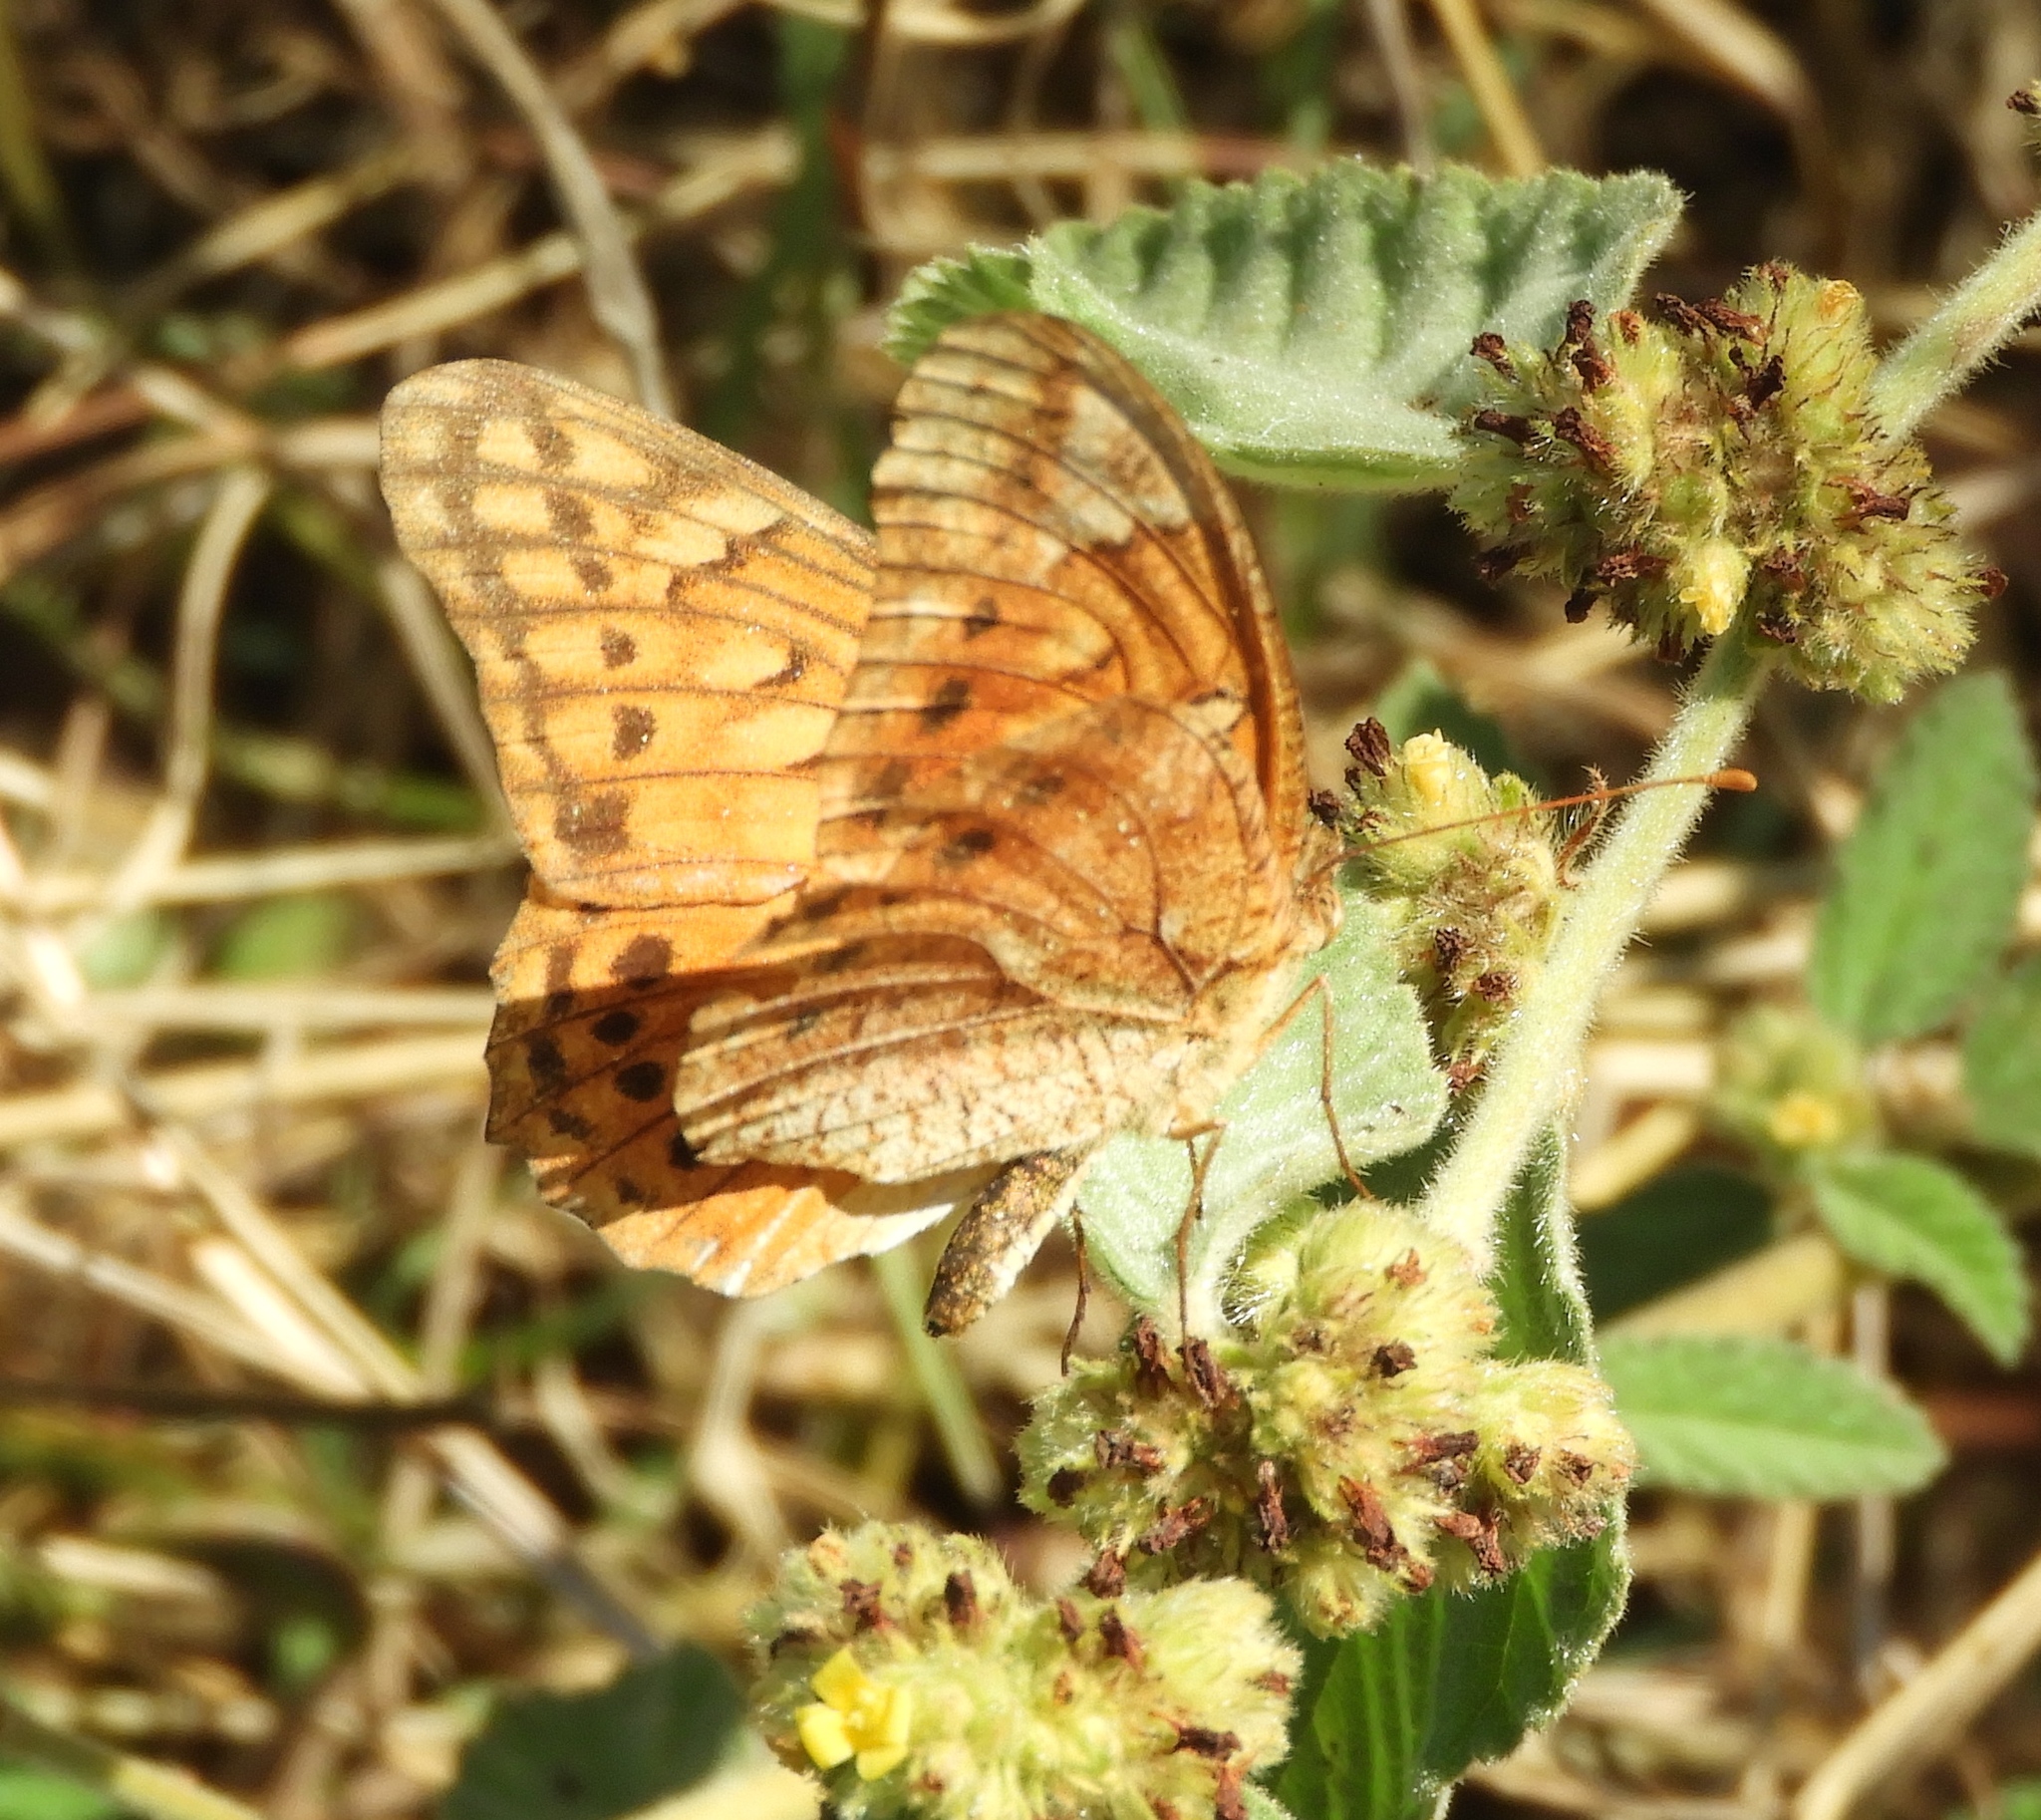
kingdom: Animalia
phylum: Arthropoda
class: Insecta
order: Lepidoptera
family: Nymphalidae
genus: Euptoieta
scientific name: Euptoieta hegesia
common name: Mexican fritillary
